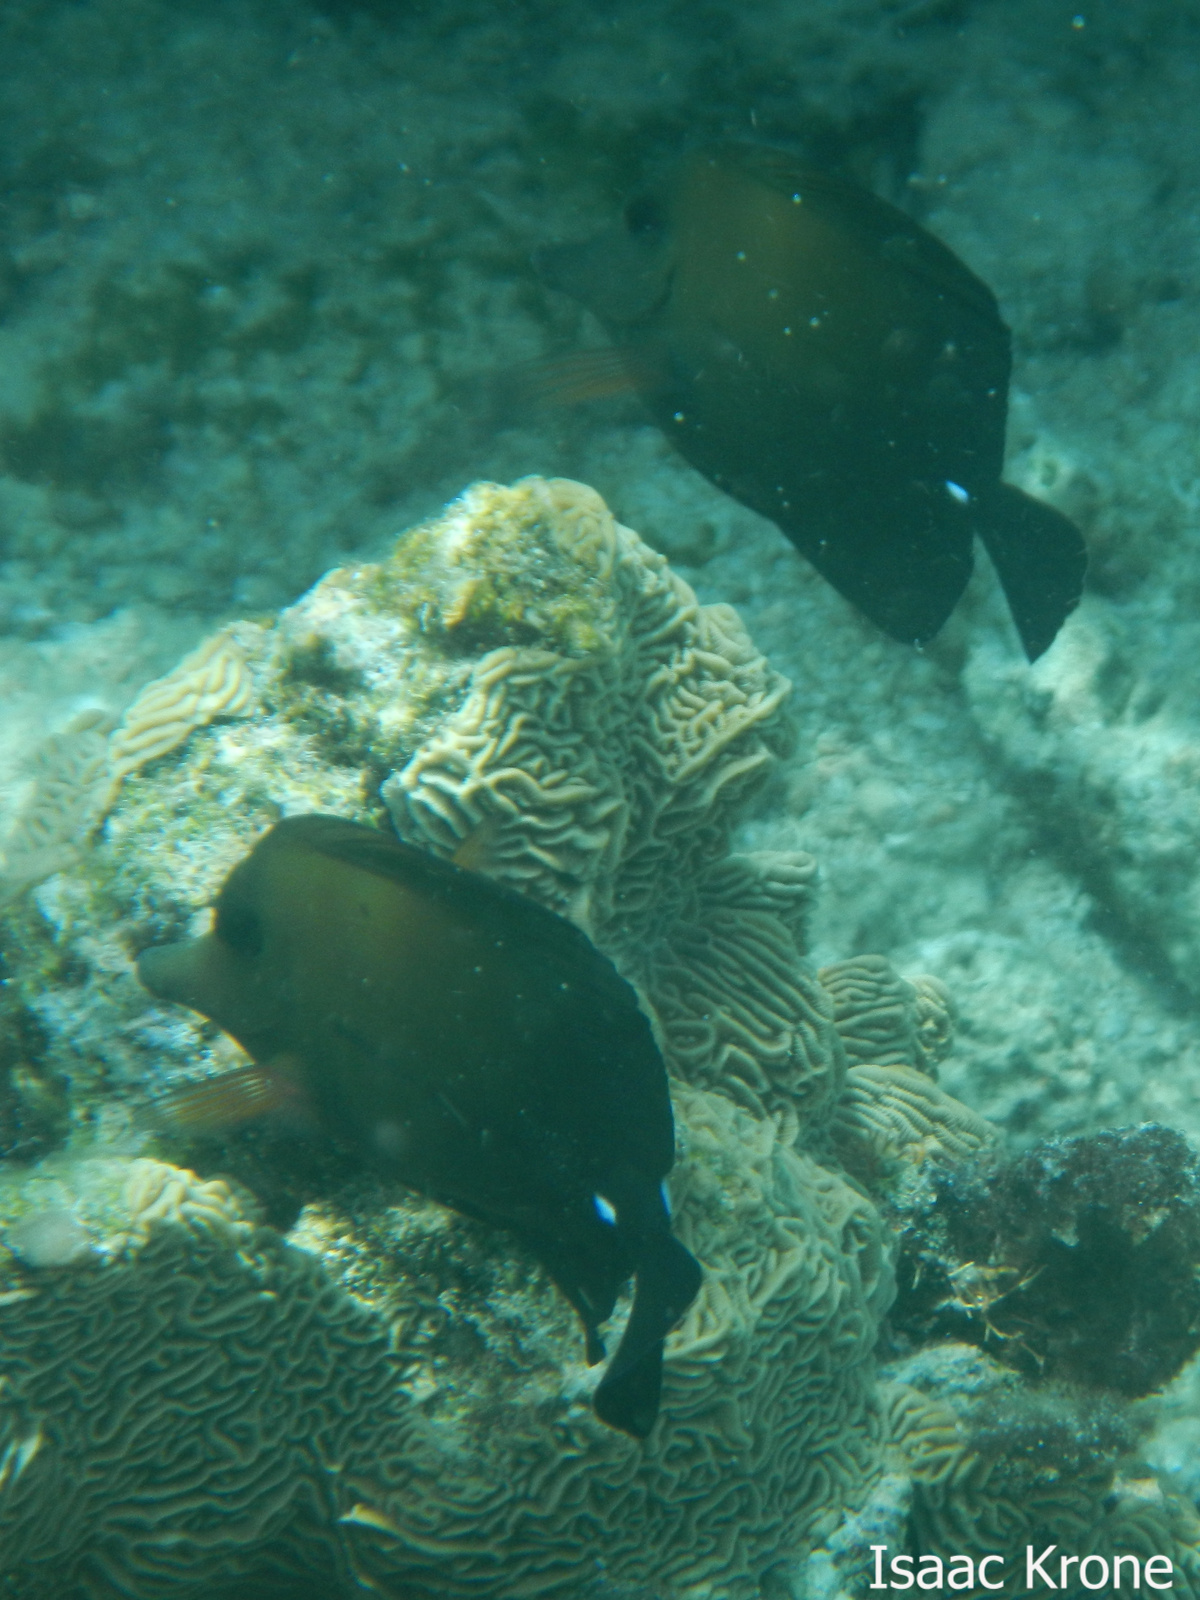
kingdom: Animalia
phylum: Chordata
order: Perciformes
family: Acanthuridae
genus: Zebrasoma
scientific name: Zebrasoma scopas
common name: Twotone tang
